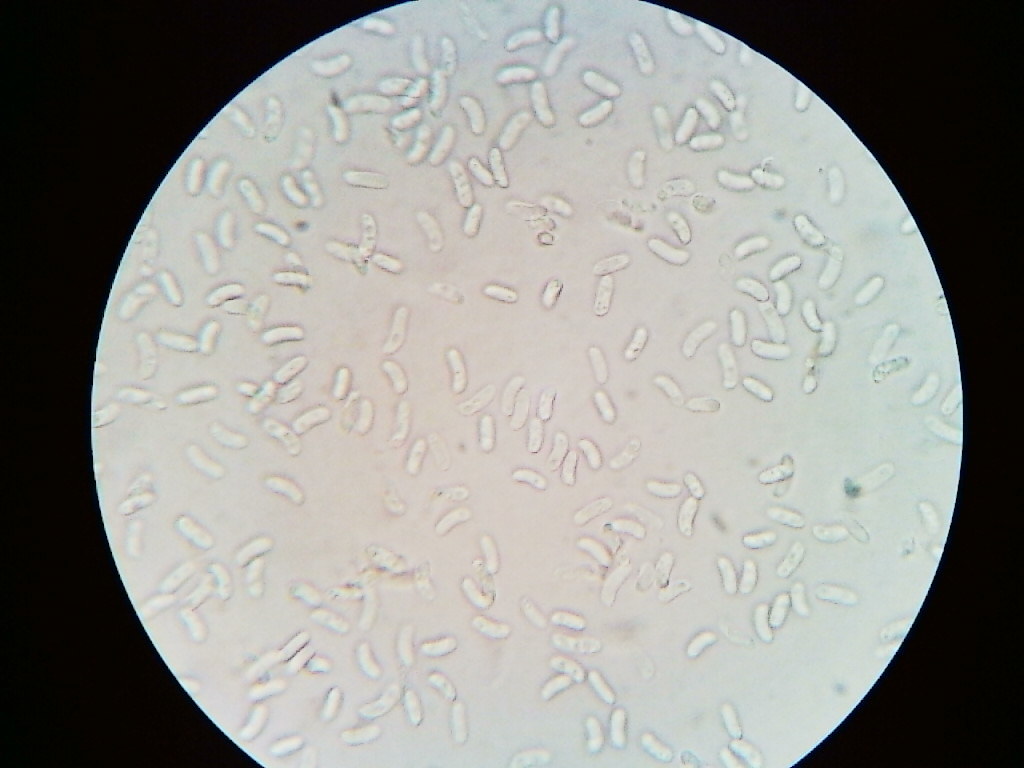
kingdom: Fungi
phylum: Basidiomycota
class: Agaricomycetes
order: Russulales
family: Peniophoraceae
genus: Peniophora
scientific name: Peniophora violaceolivida
